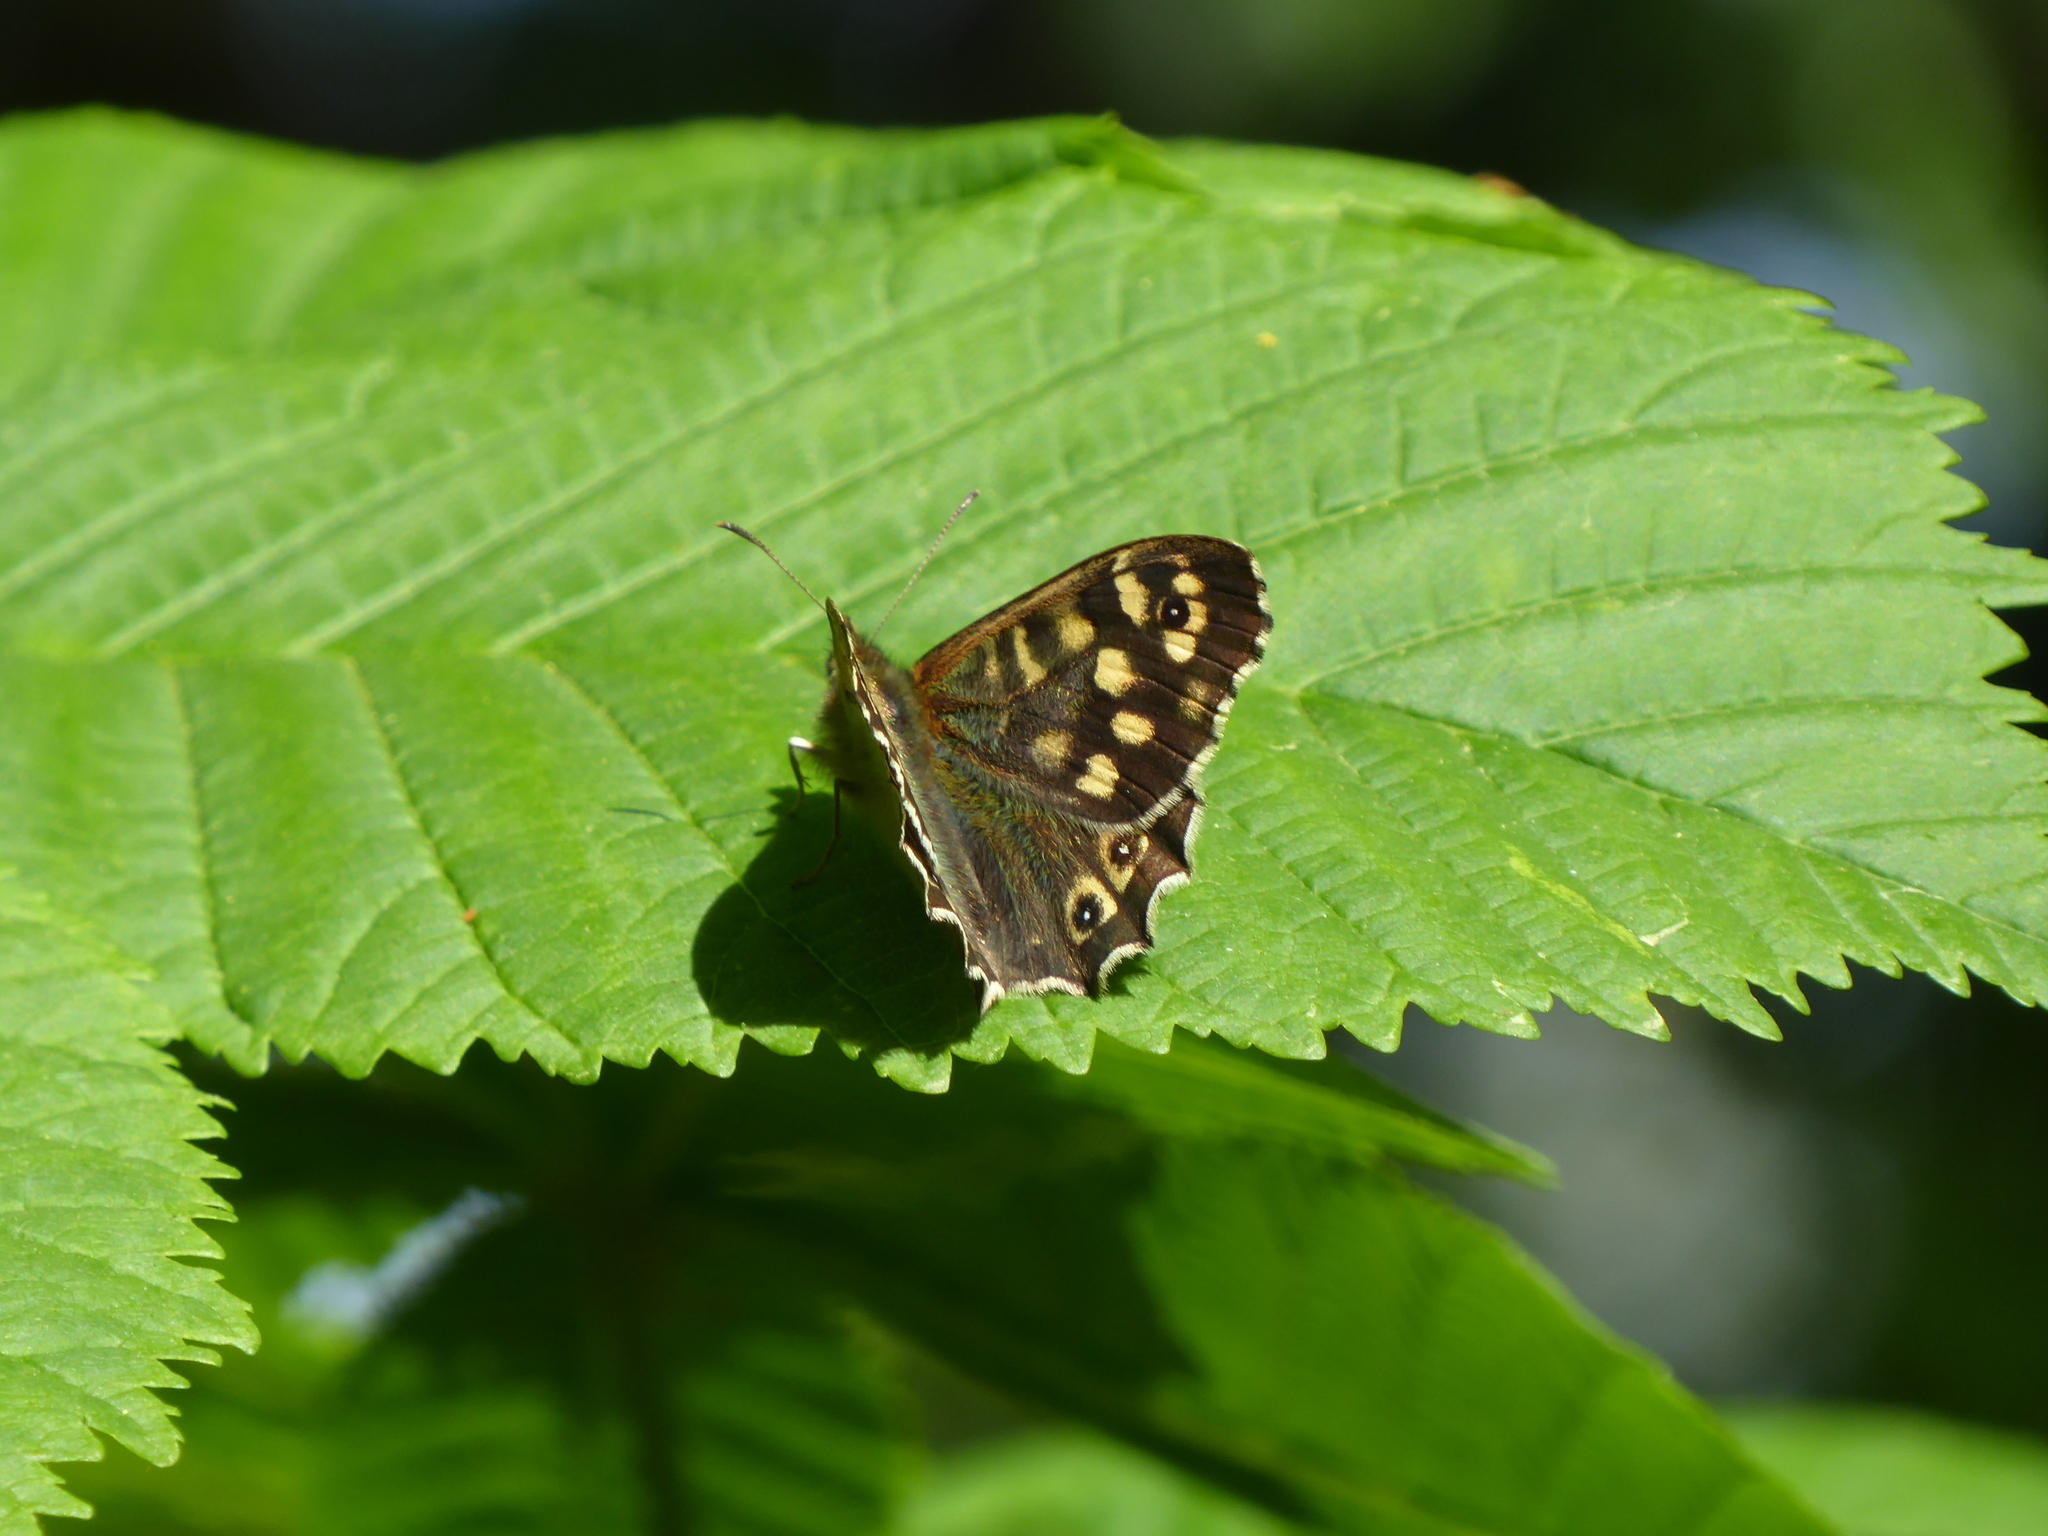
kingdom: Animalia
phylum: Arthropoda
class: Insecta
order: Lepidoptera
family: Nymphalidae
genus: Pararge
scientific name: Pararge aegeria
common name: Speckled wood
